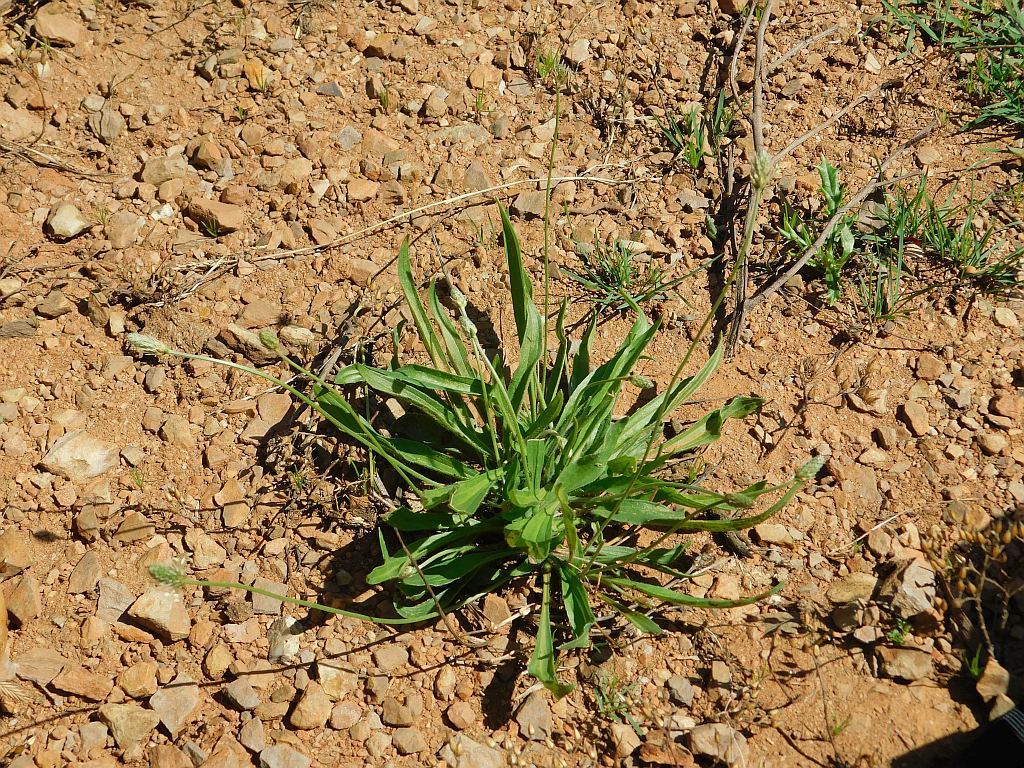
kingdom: Plantae
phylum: Tracheophyta
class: Magnoliopsida
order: Lamiales
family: Plantaginaceae
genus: Plantago
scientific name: Plantago lanceolata
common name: Ribwort plantain
